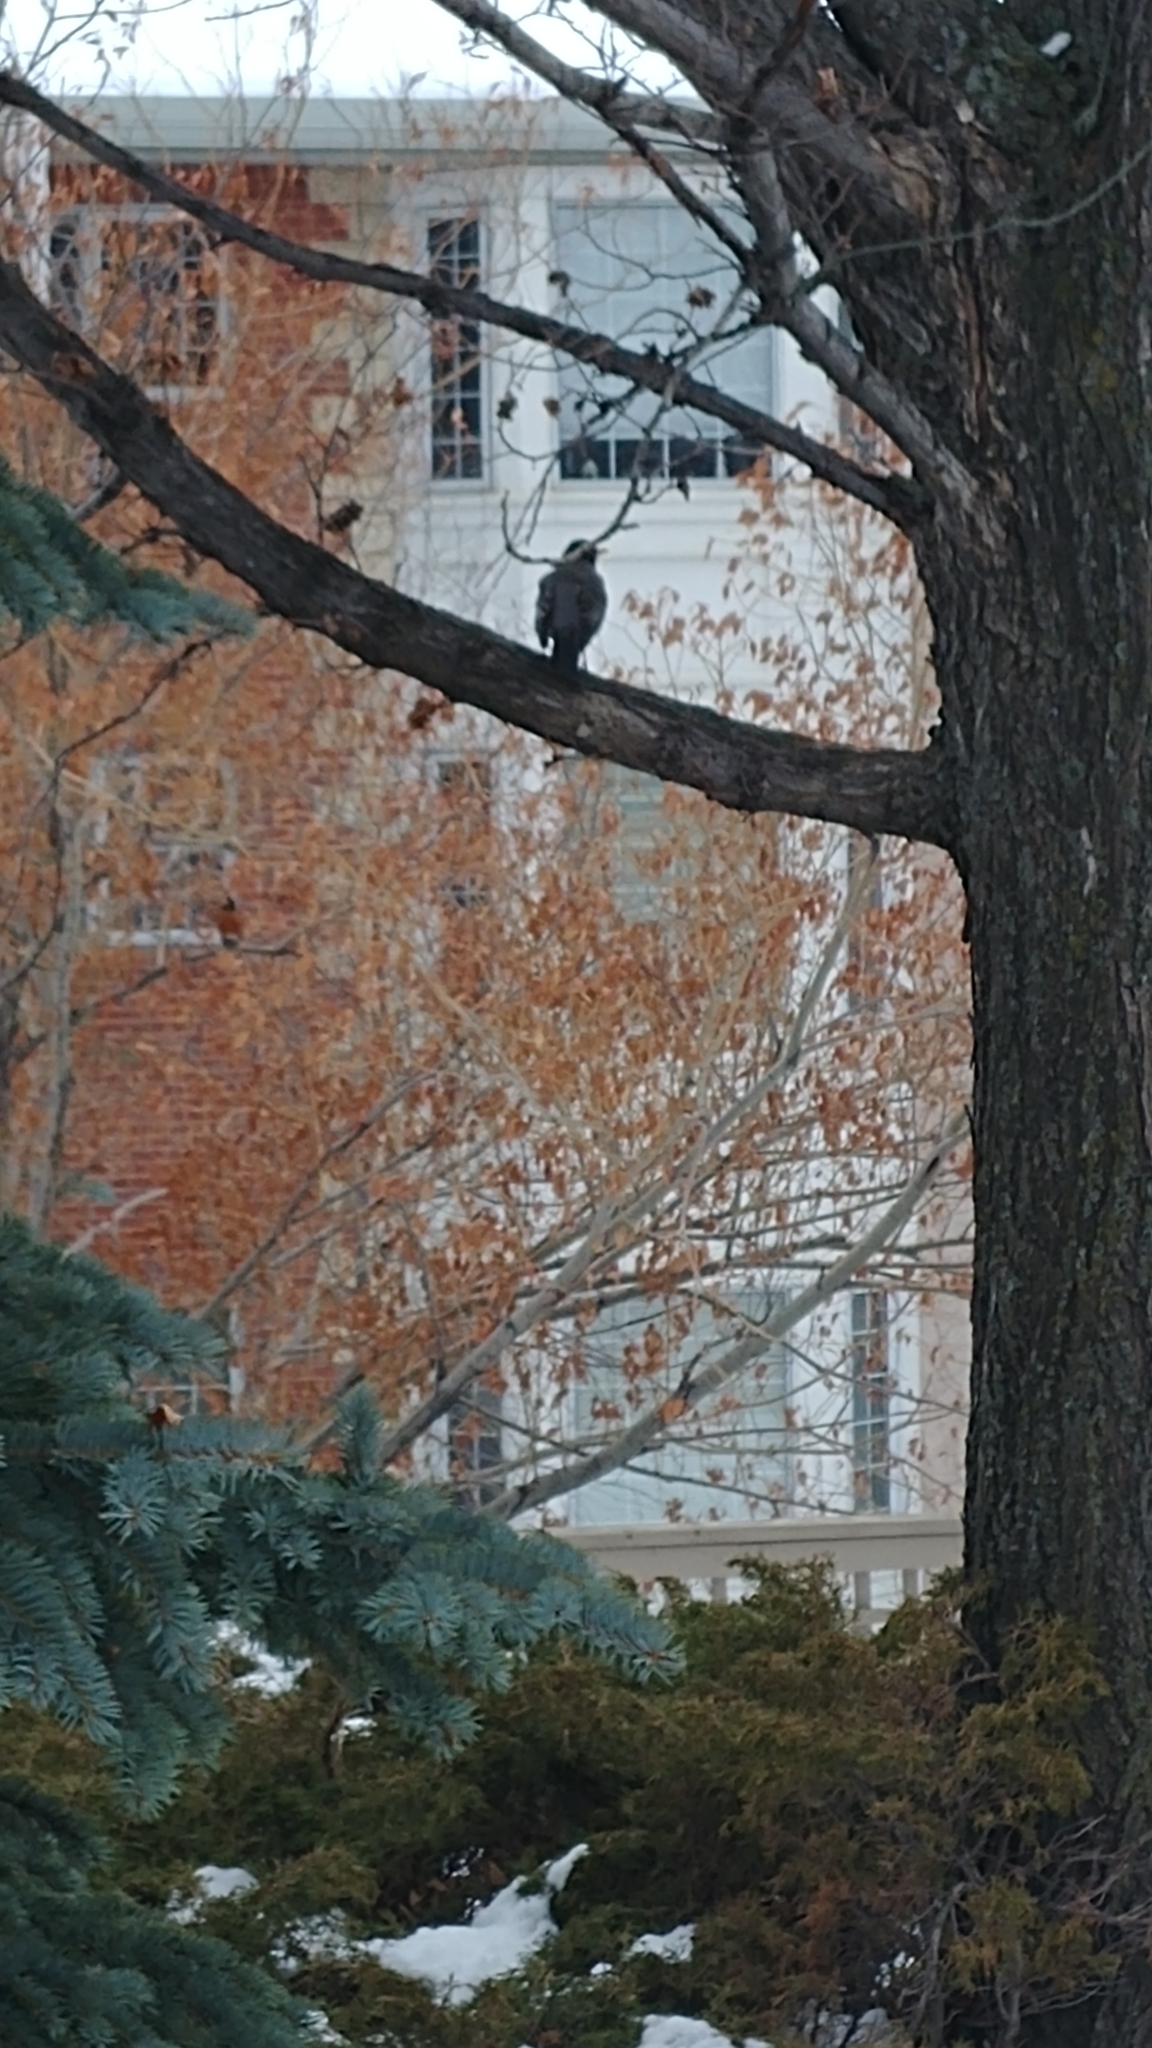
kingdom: Animalia
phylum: Chordata
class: Aves
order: Passeriformes
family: Turdidae
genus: Turdus
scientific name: Turdus migratorius
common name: American robin
